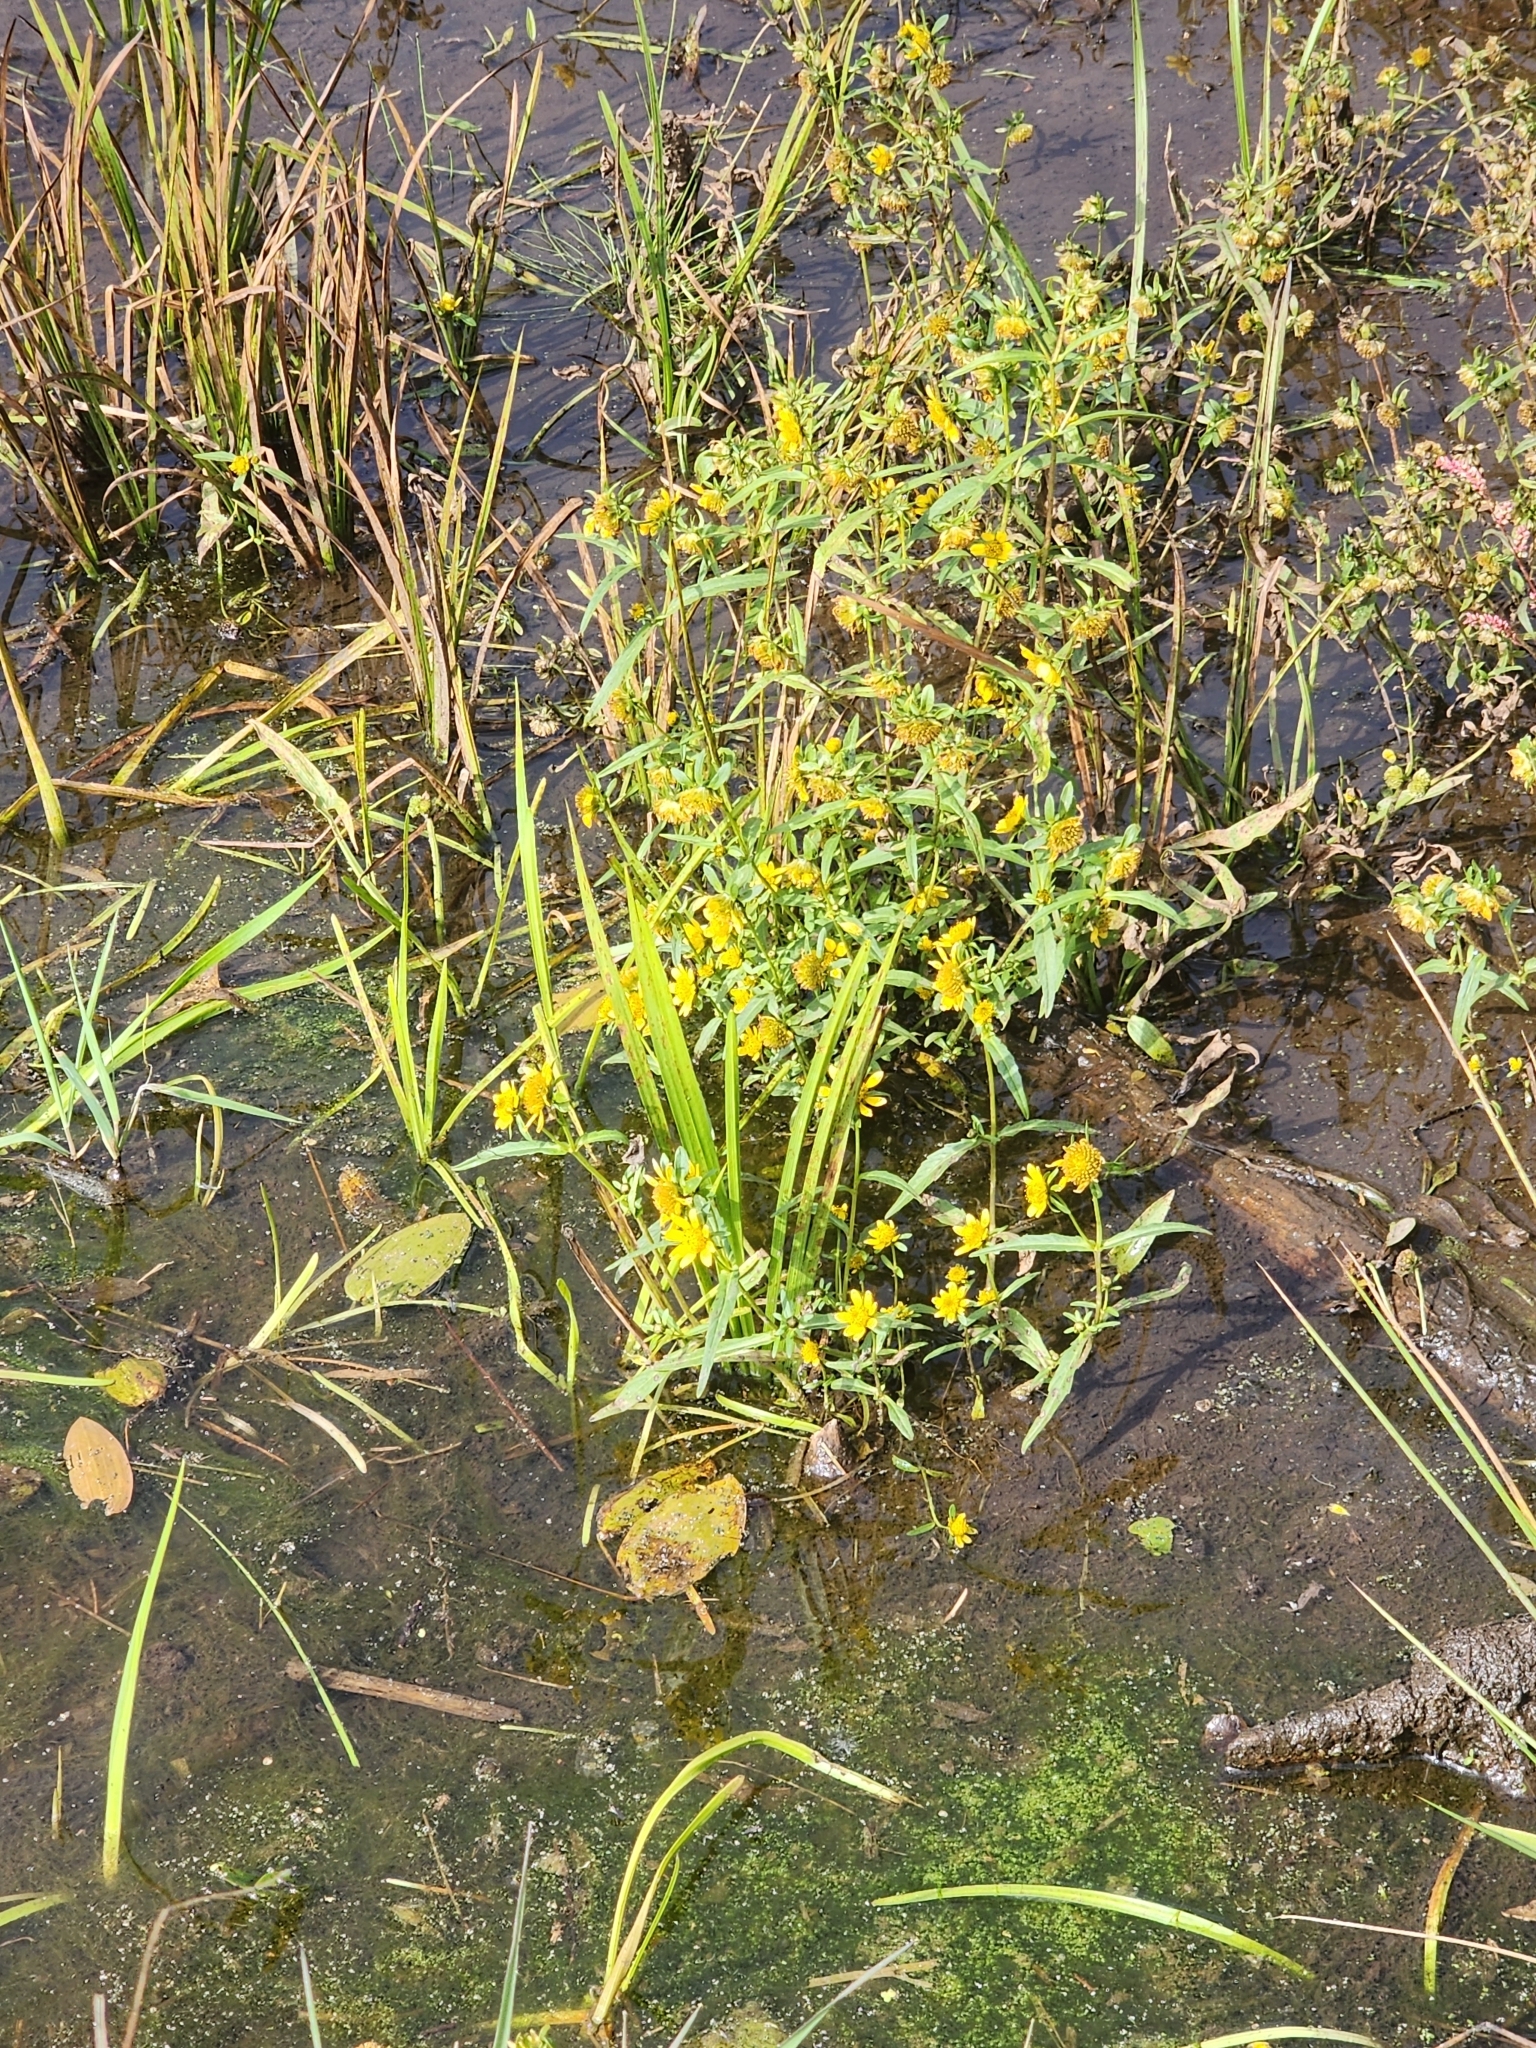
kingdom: Plantae
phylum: Tracheophyta
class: Magnoliopsida
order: Asterales
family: Asteraceae
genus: Bidens
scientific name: Bidens cernua
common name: Nodding bur-marigold
